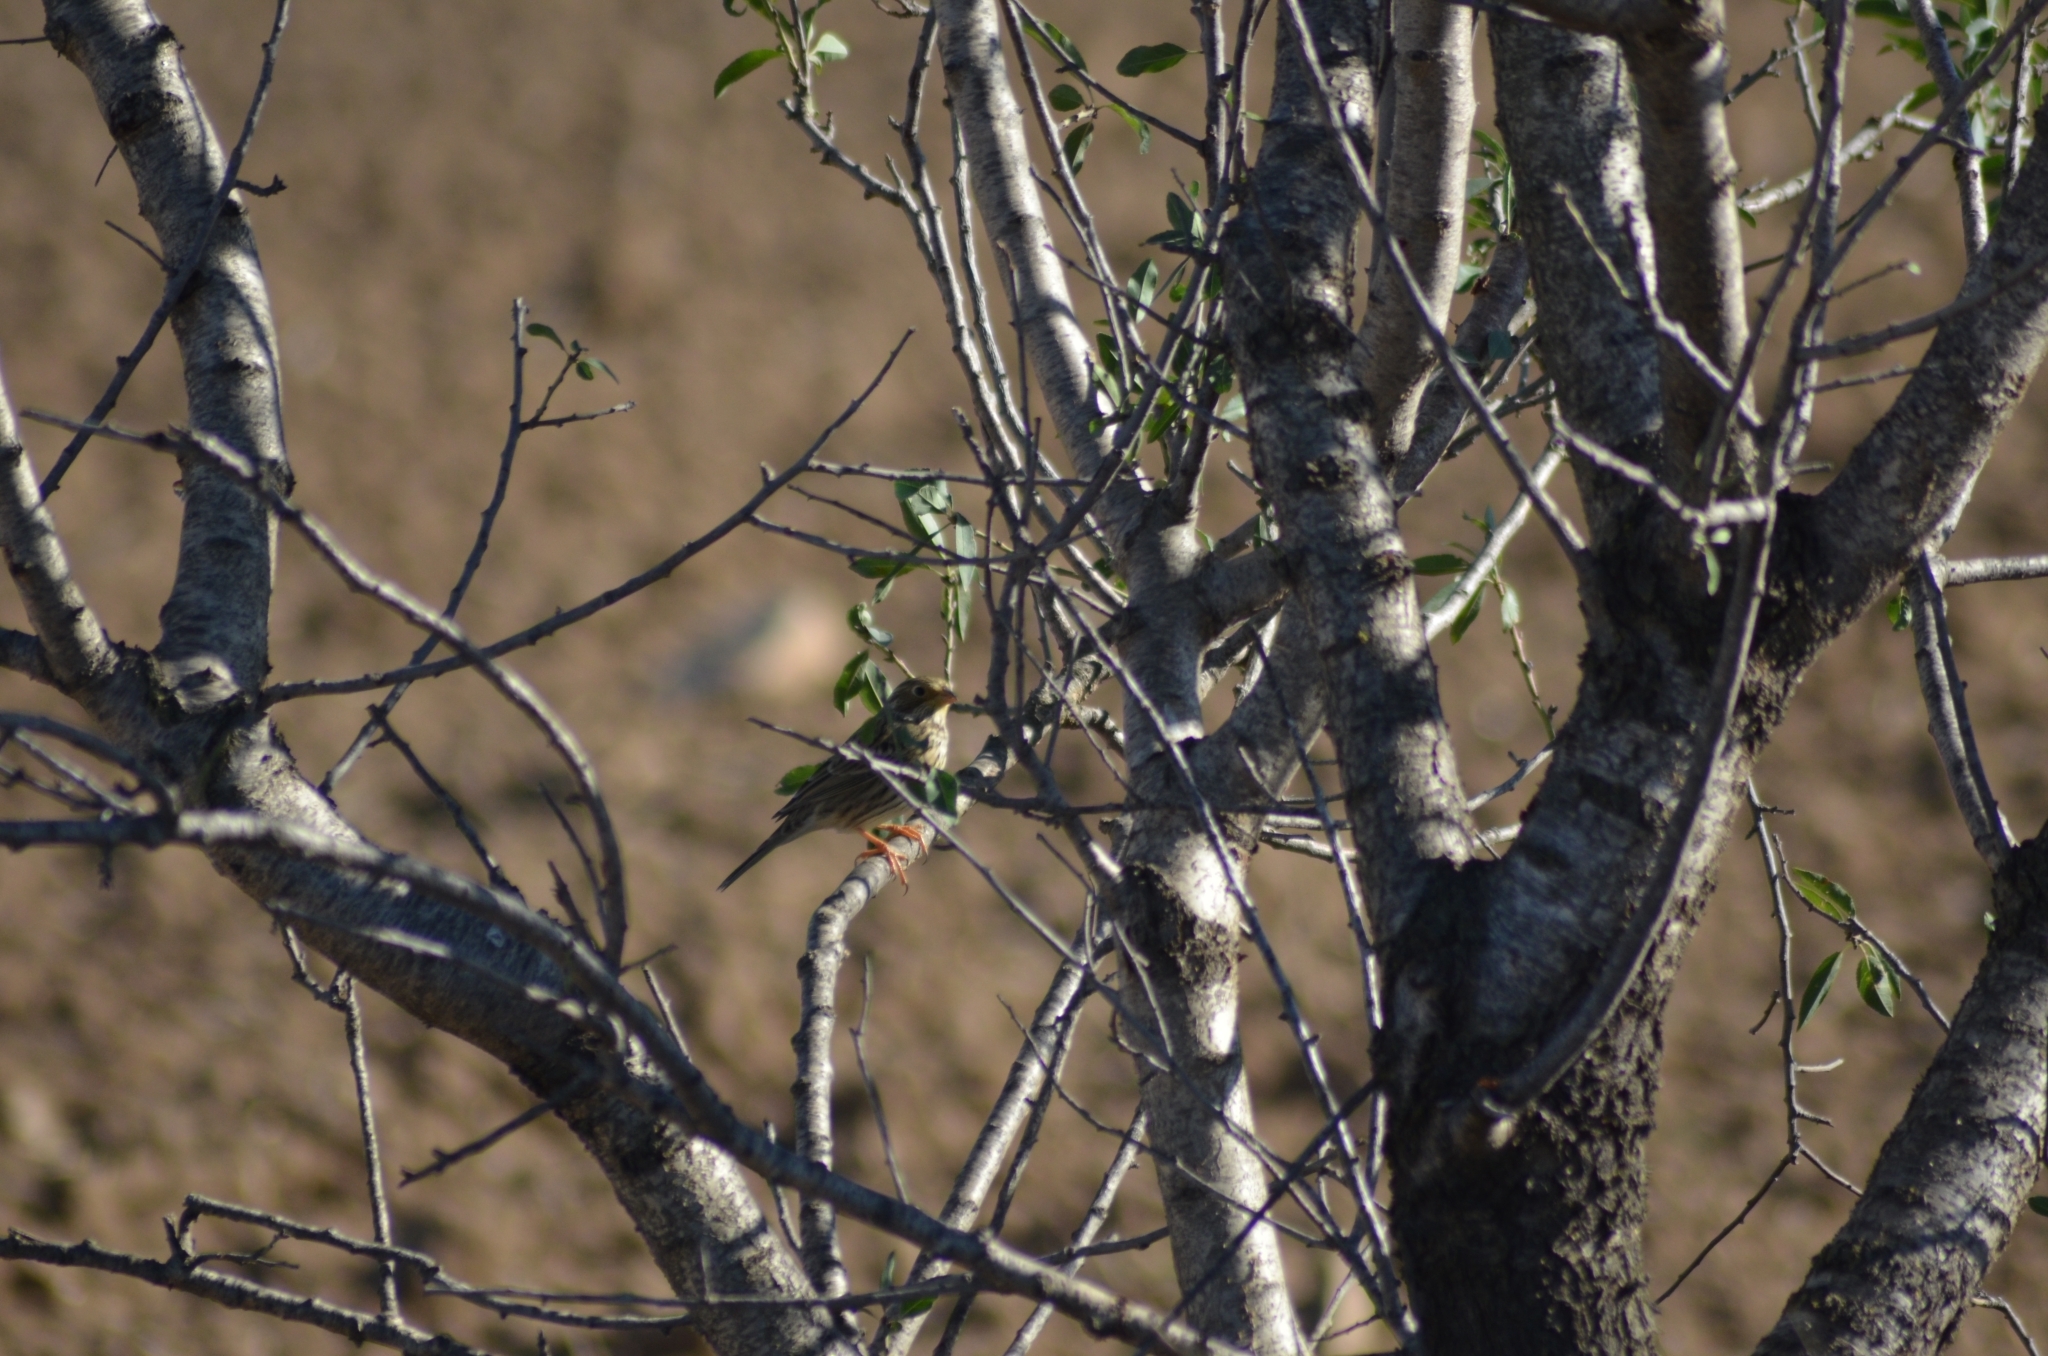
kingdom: Animalia
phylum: Chordata
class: Aves
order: Passeriformes
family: Emberizidae
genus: Emberiza
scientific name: Emberiza calandra
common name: Corn bunting
